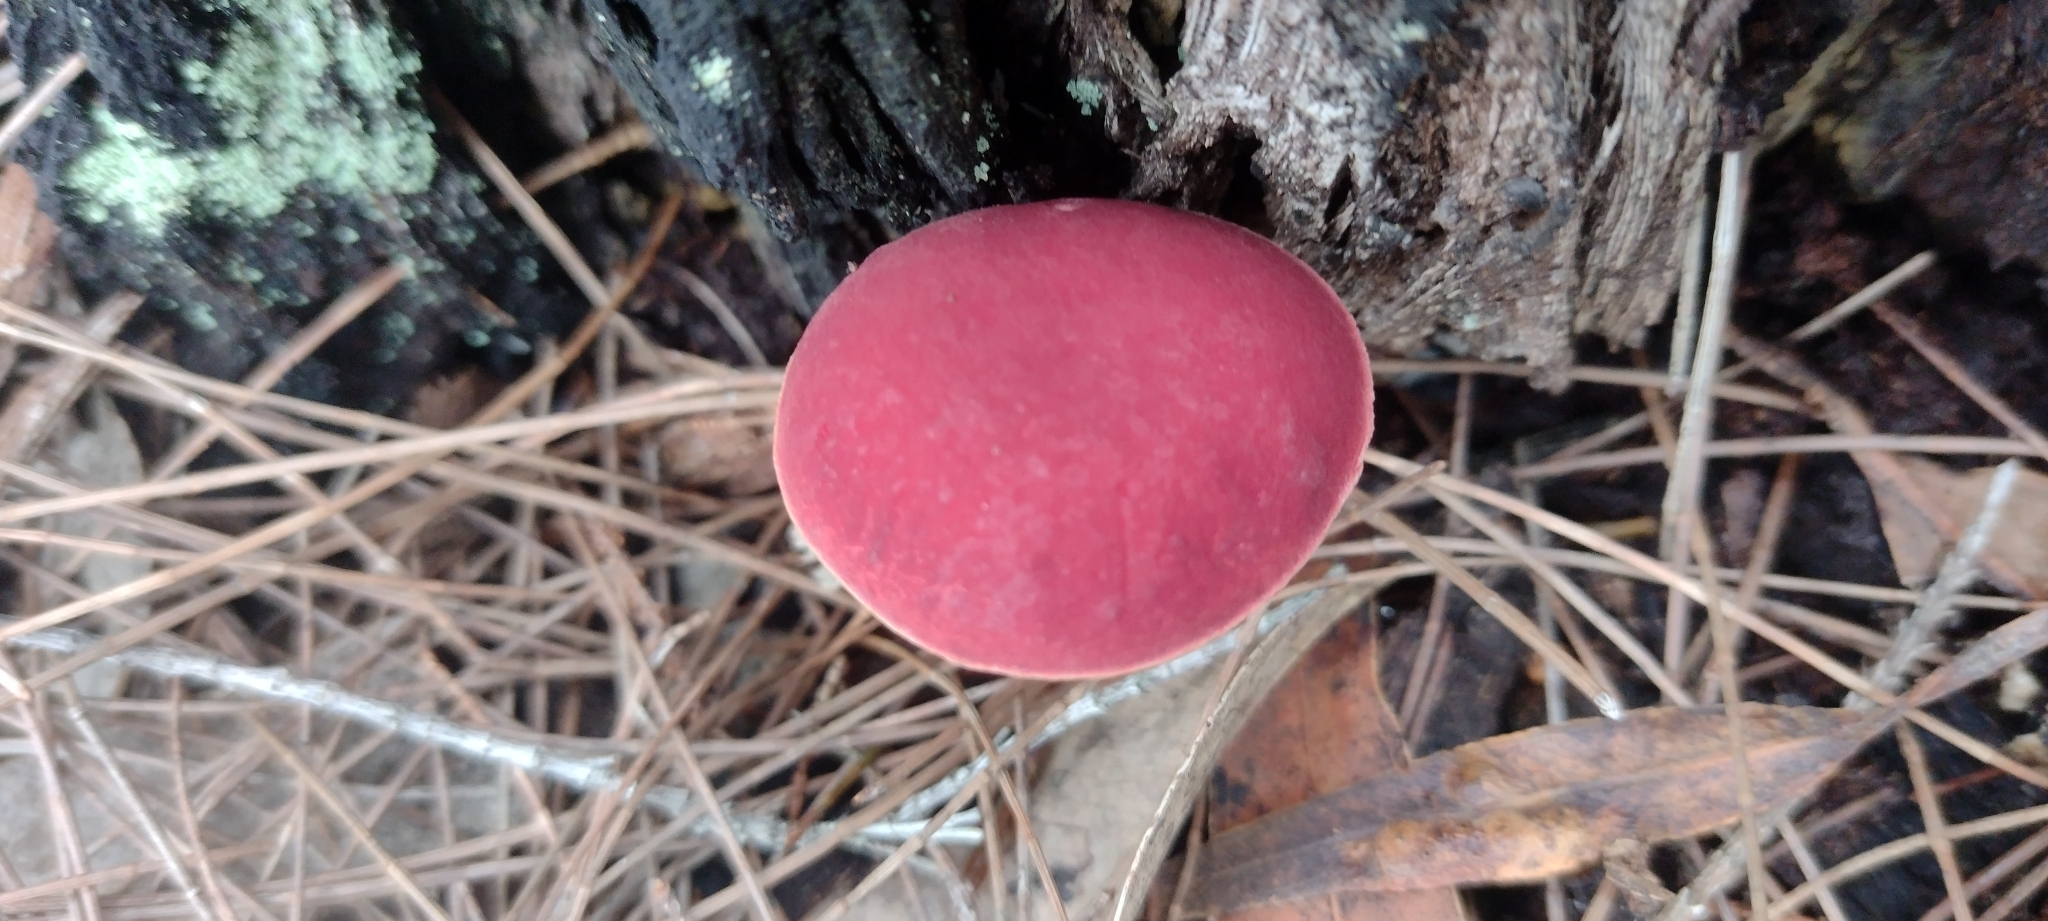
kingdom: Fungi
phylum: Basidiomycota
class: Agaricomycetes
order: Boletales
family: Boletaceae
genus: Boletellus
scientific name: Boletellus obscurecoccineus
